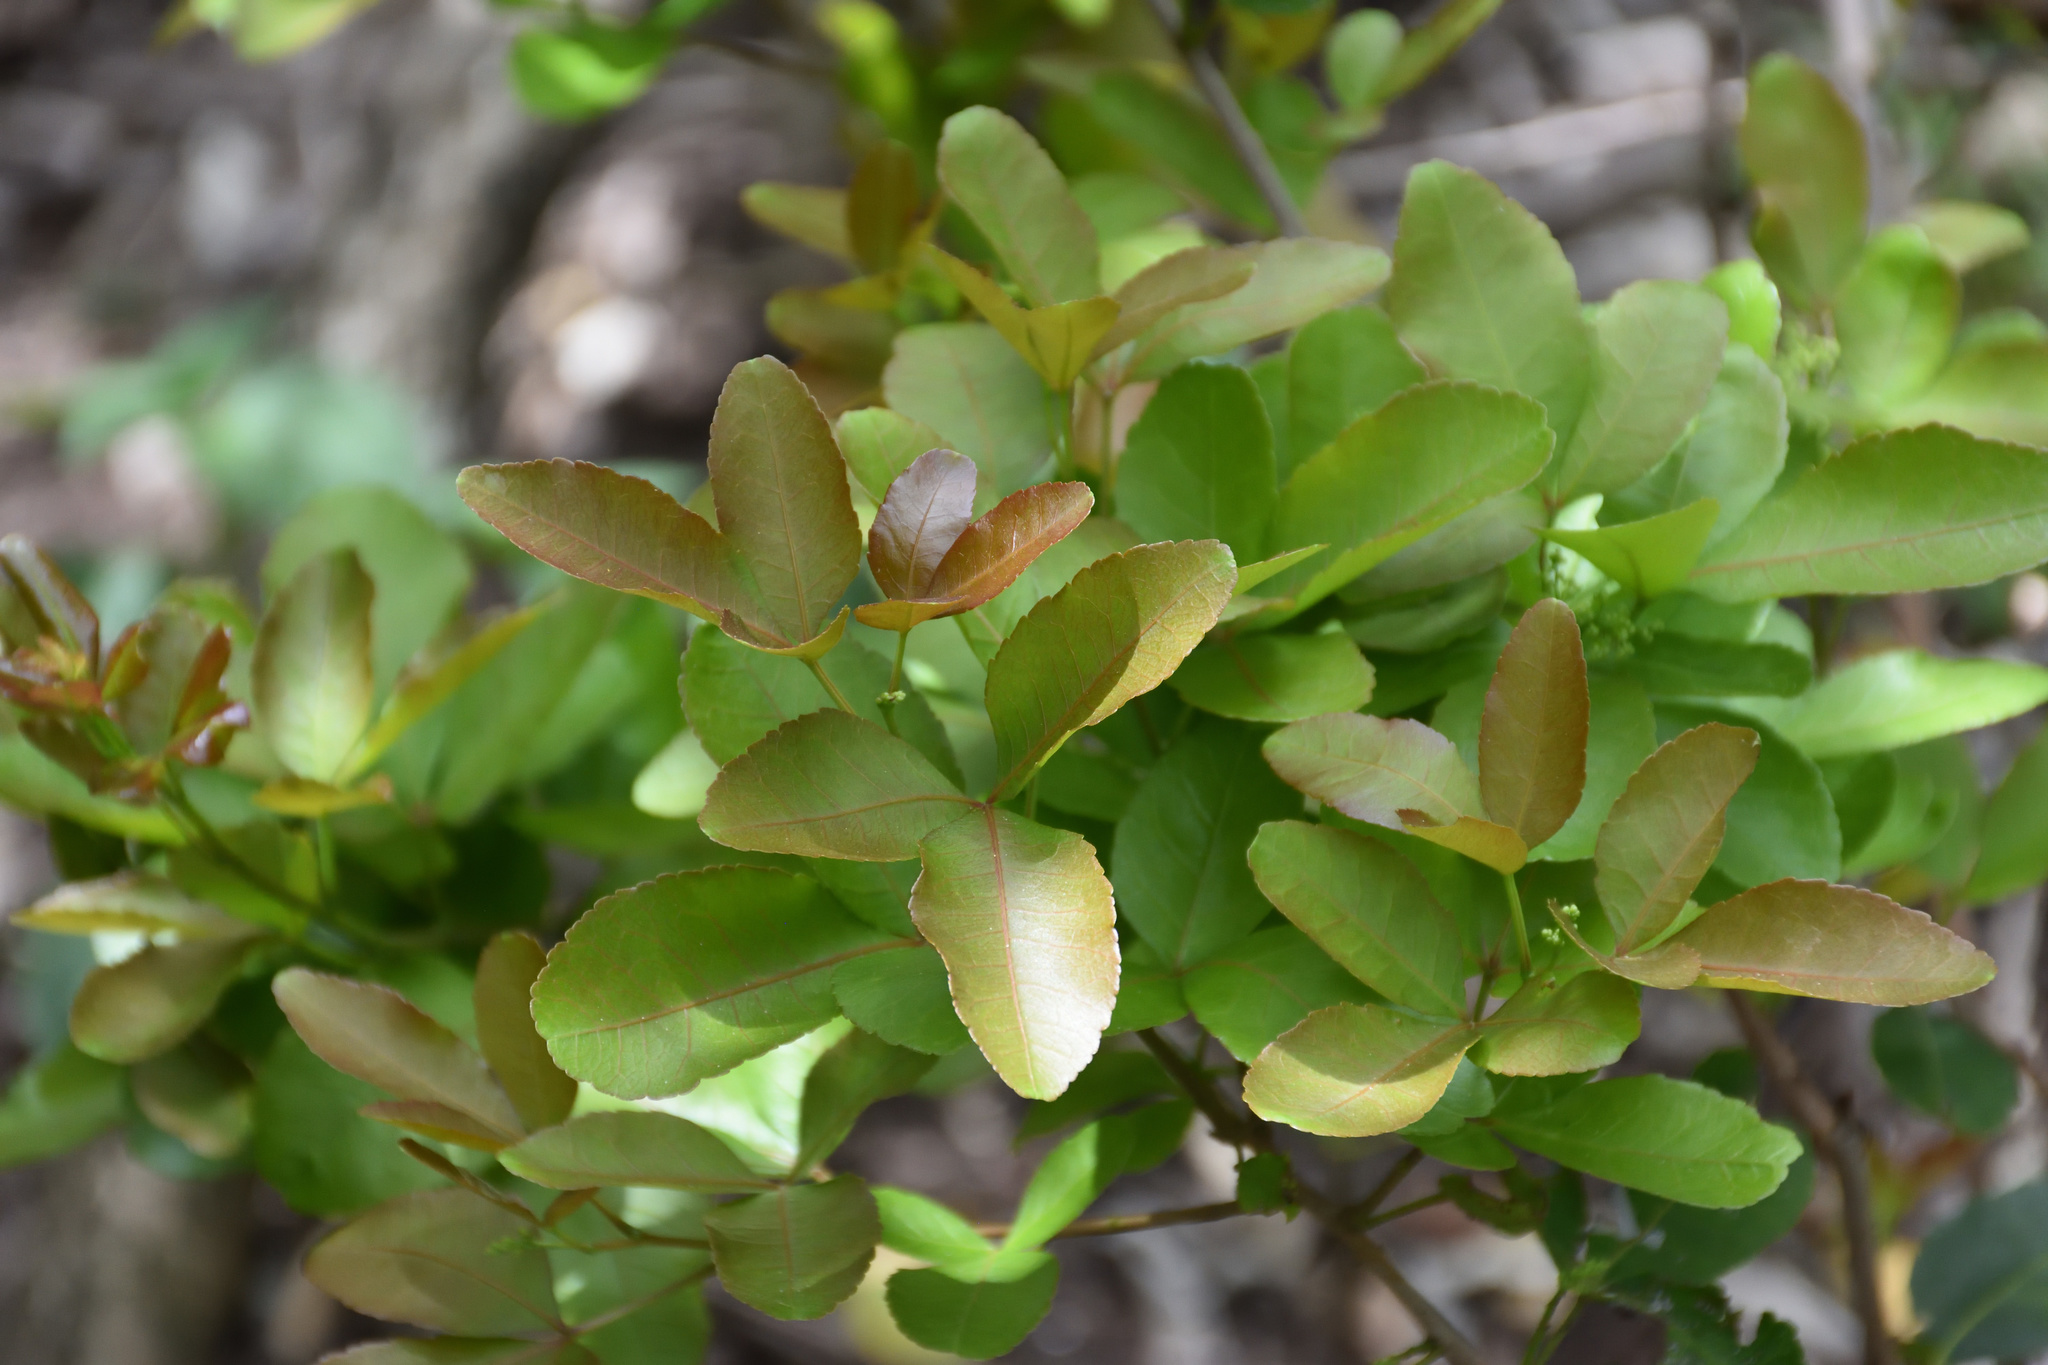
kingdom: Plantae
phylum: Tracheophyta
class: Magnoliopsida
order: Sapindales
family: Anacardiaceae
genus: Searsia
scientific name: Searsia natalensis
